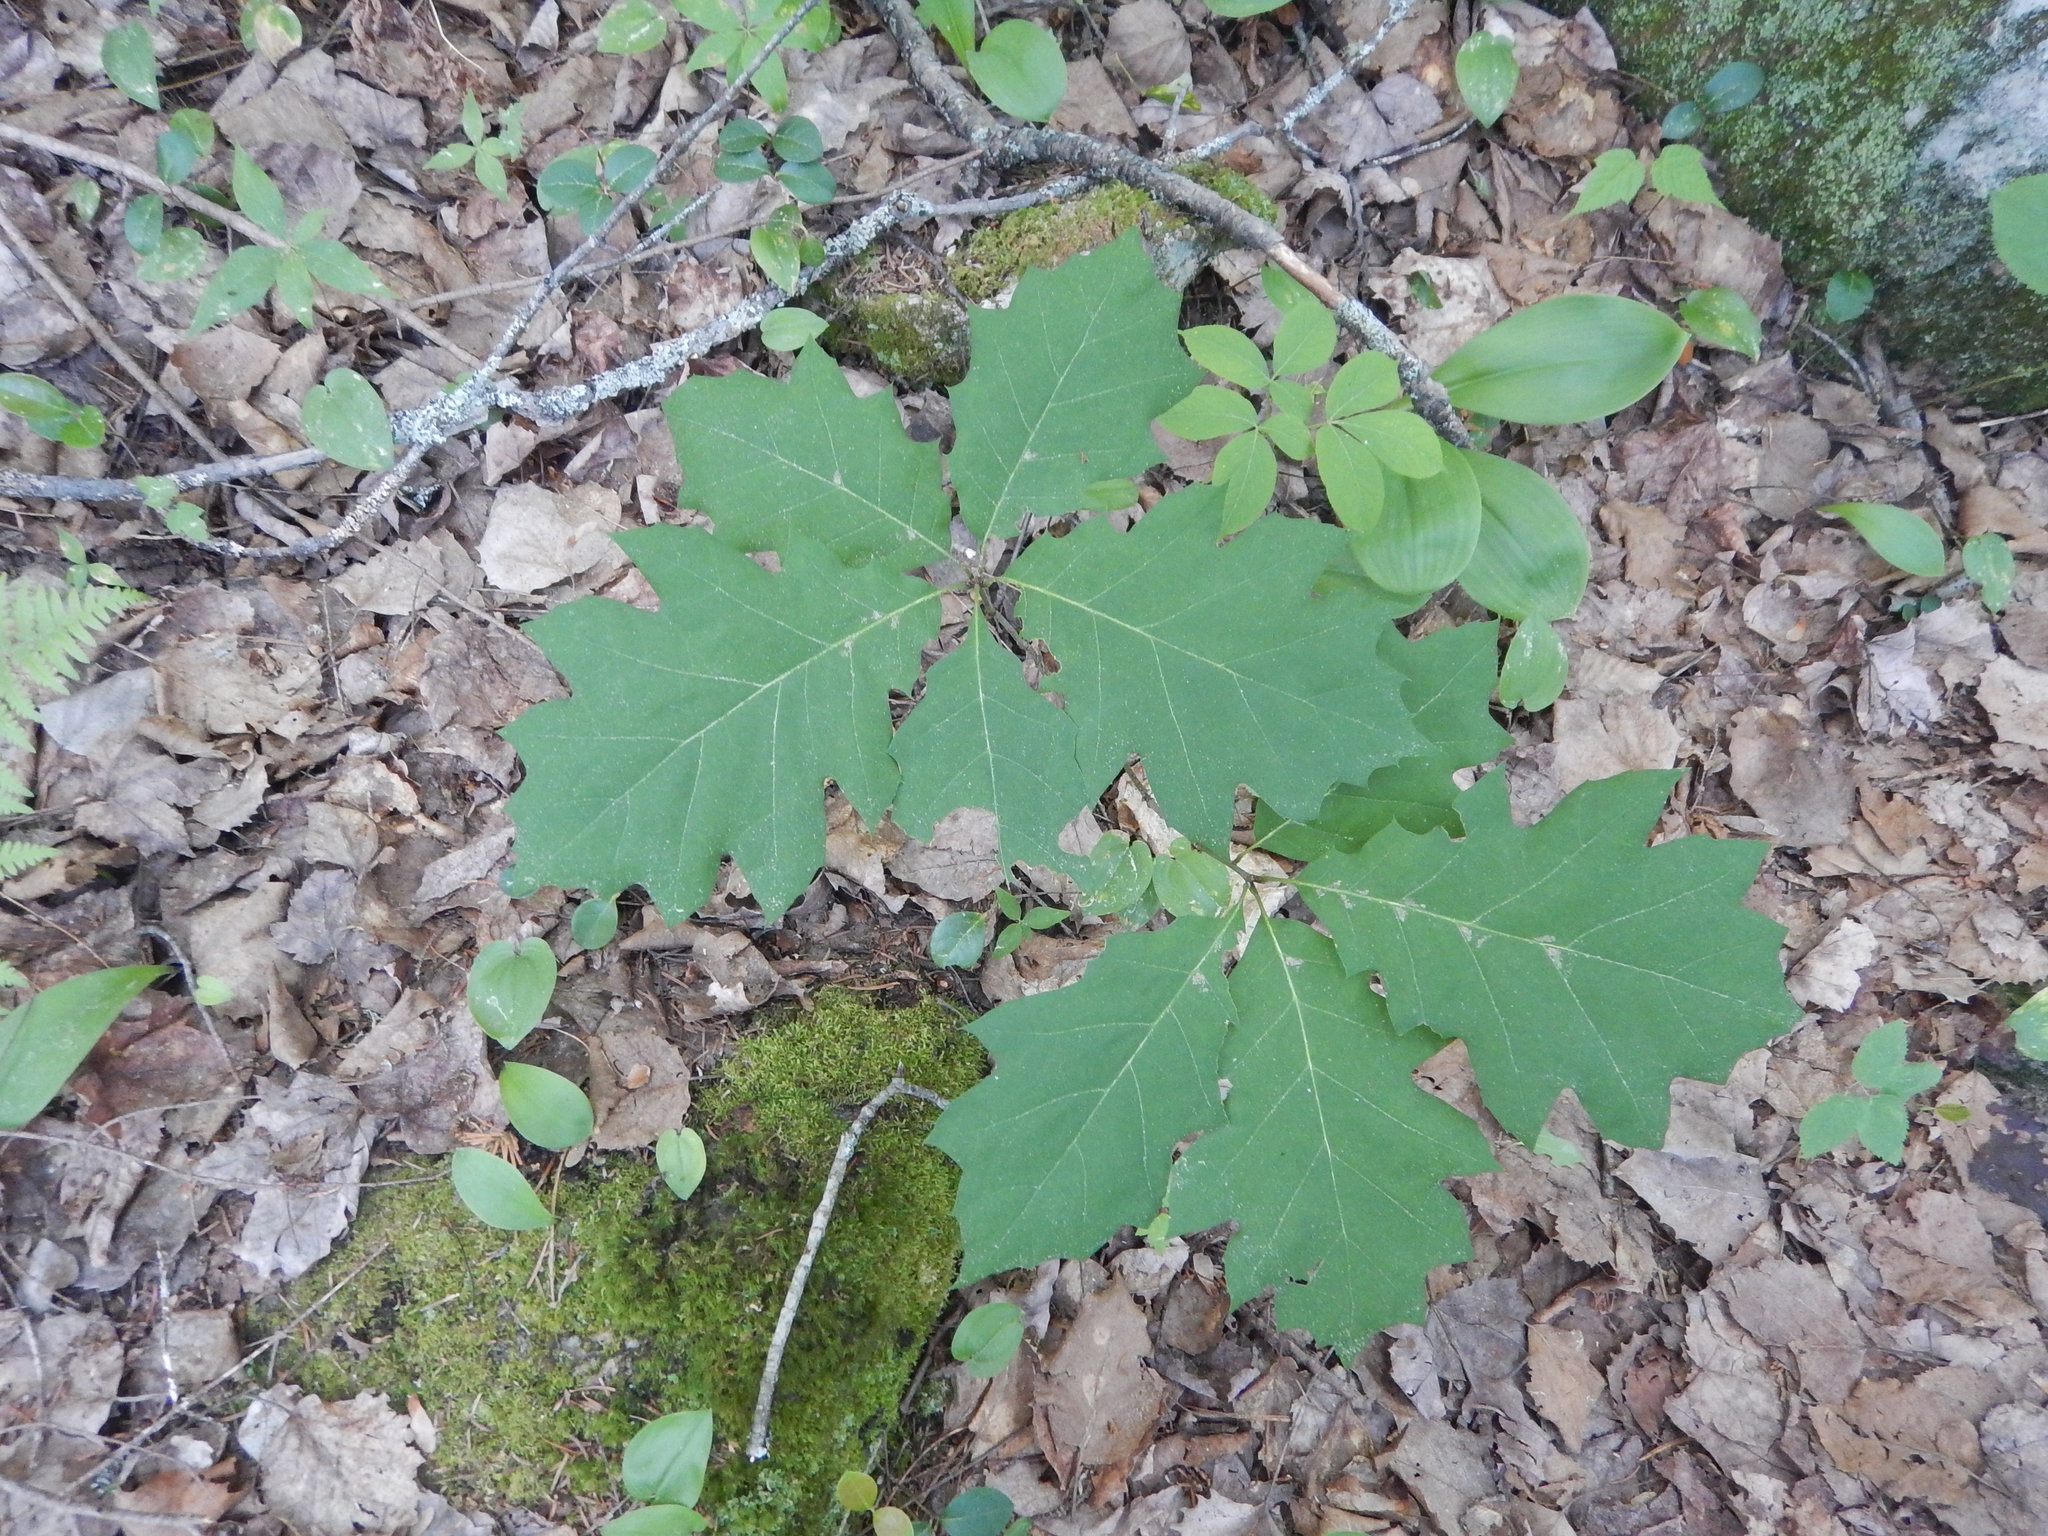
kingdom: Plantae
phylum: Tracheophyta
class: Magnoliopsida
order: Fagales
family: Fagaceae
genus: Quercus
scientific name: Quercus rubra
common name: Red oak
